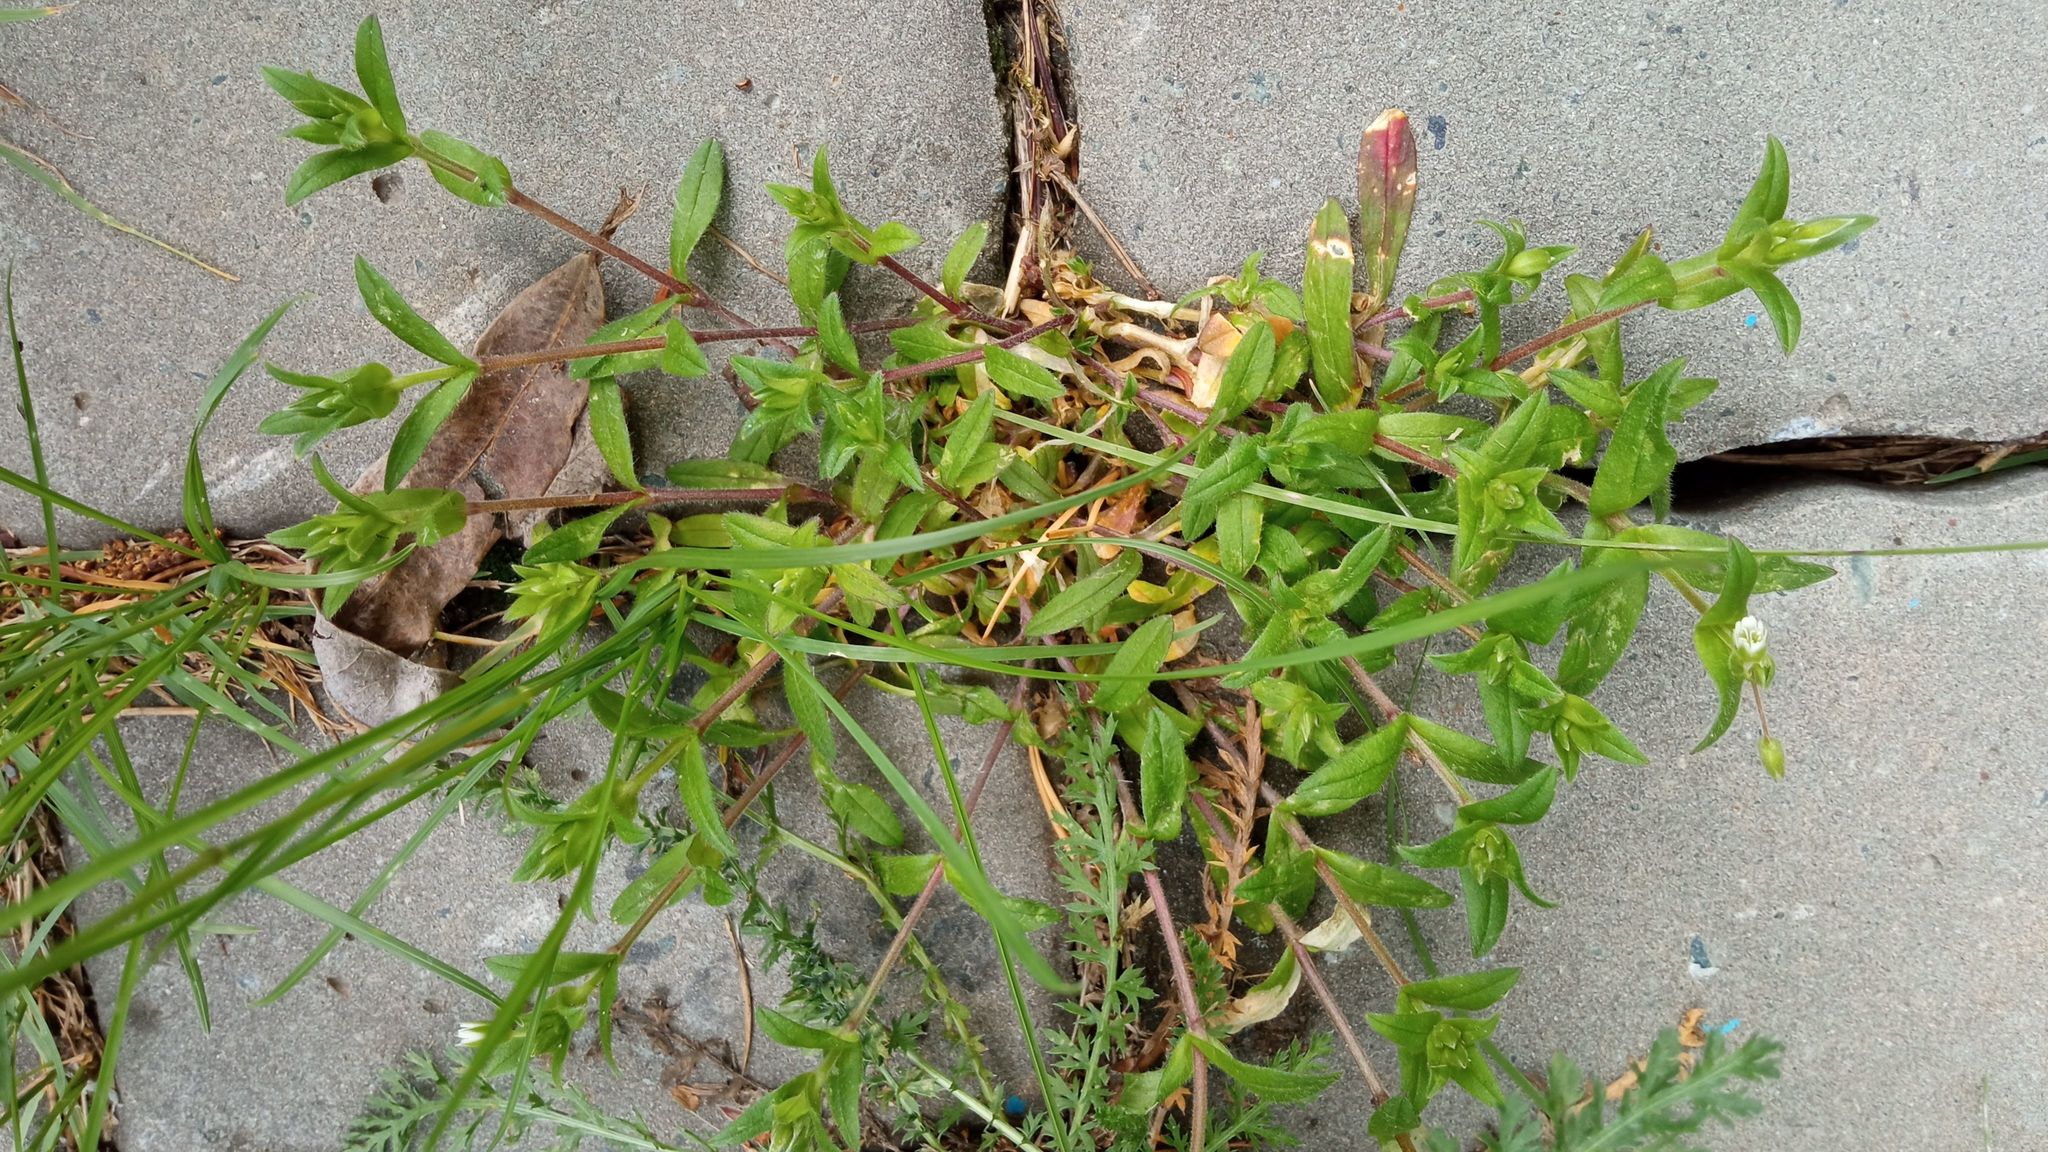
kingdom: Plantae
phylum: Tracheophyta
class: Magnoliopsida
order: Caryophyllales
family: Caryophyllaceae
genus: Cerastium
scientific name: Cerastium holosteoides
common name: Big chickweed
